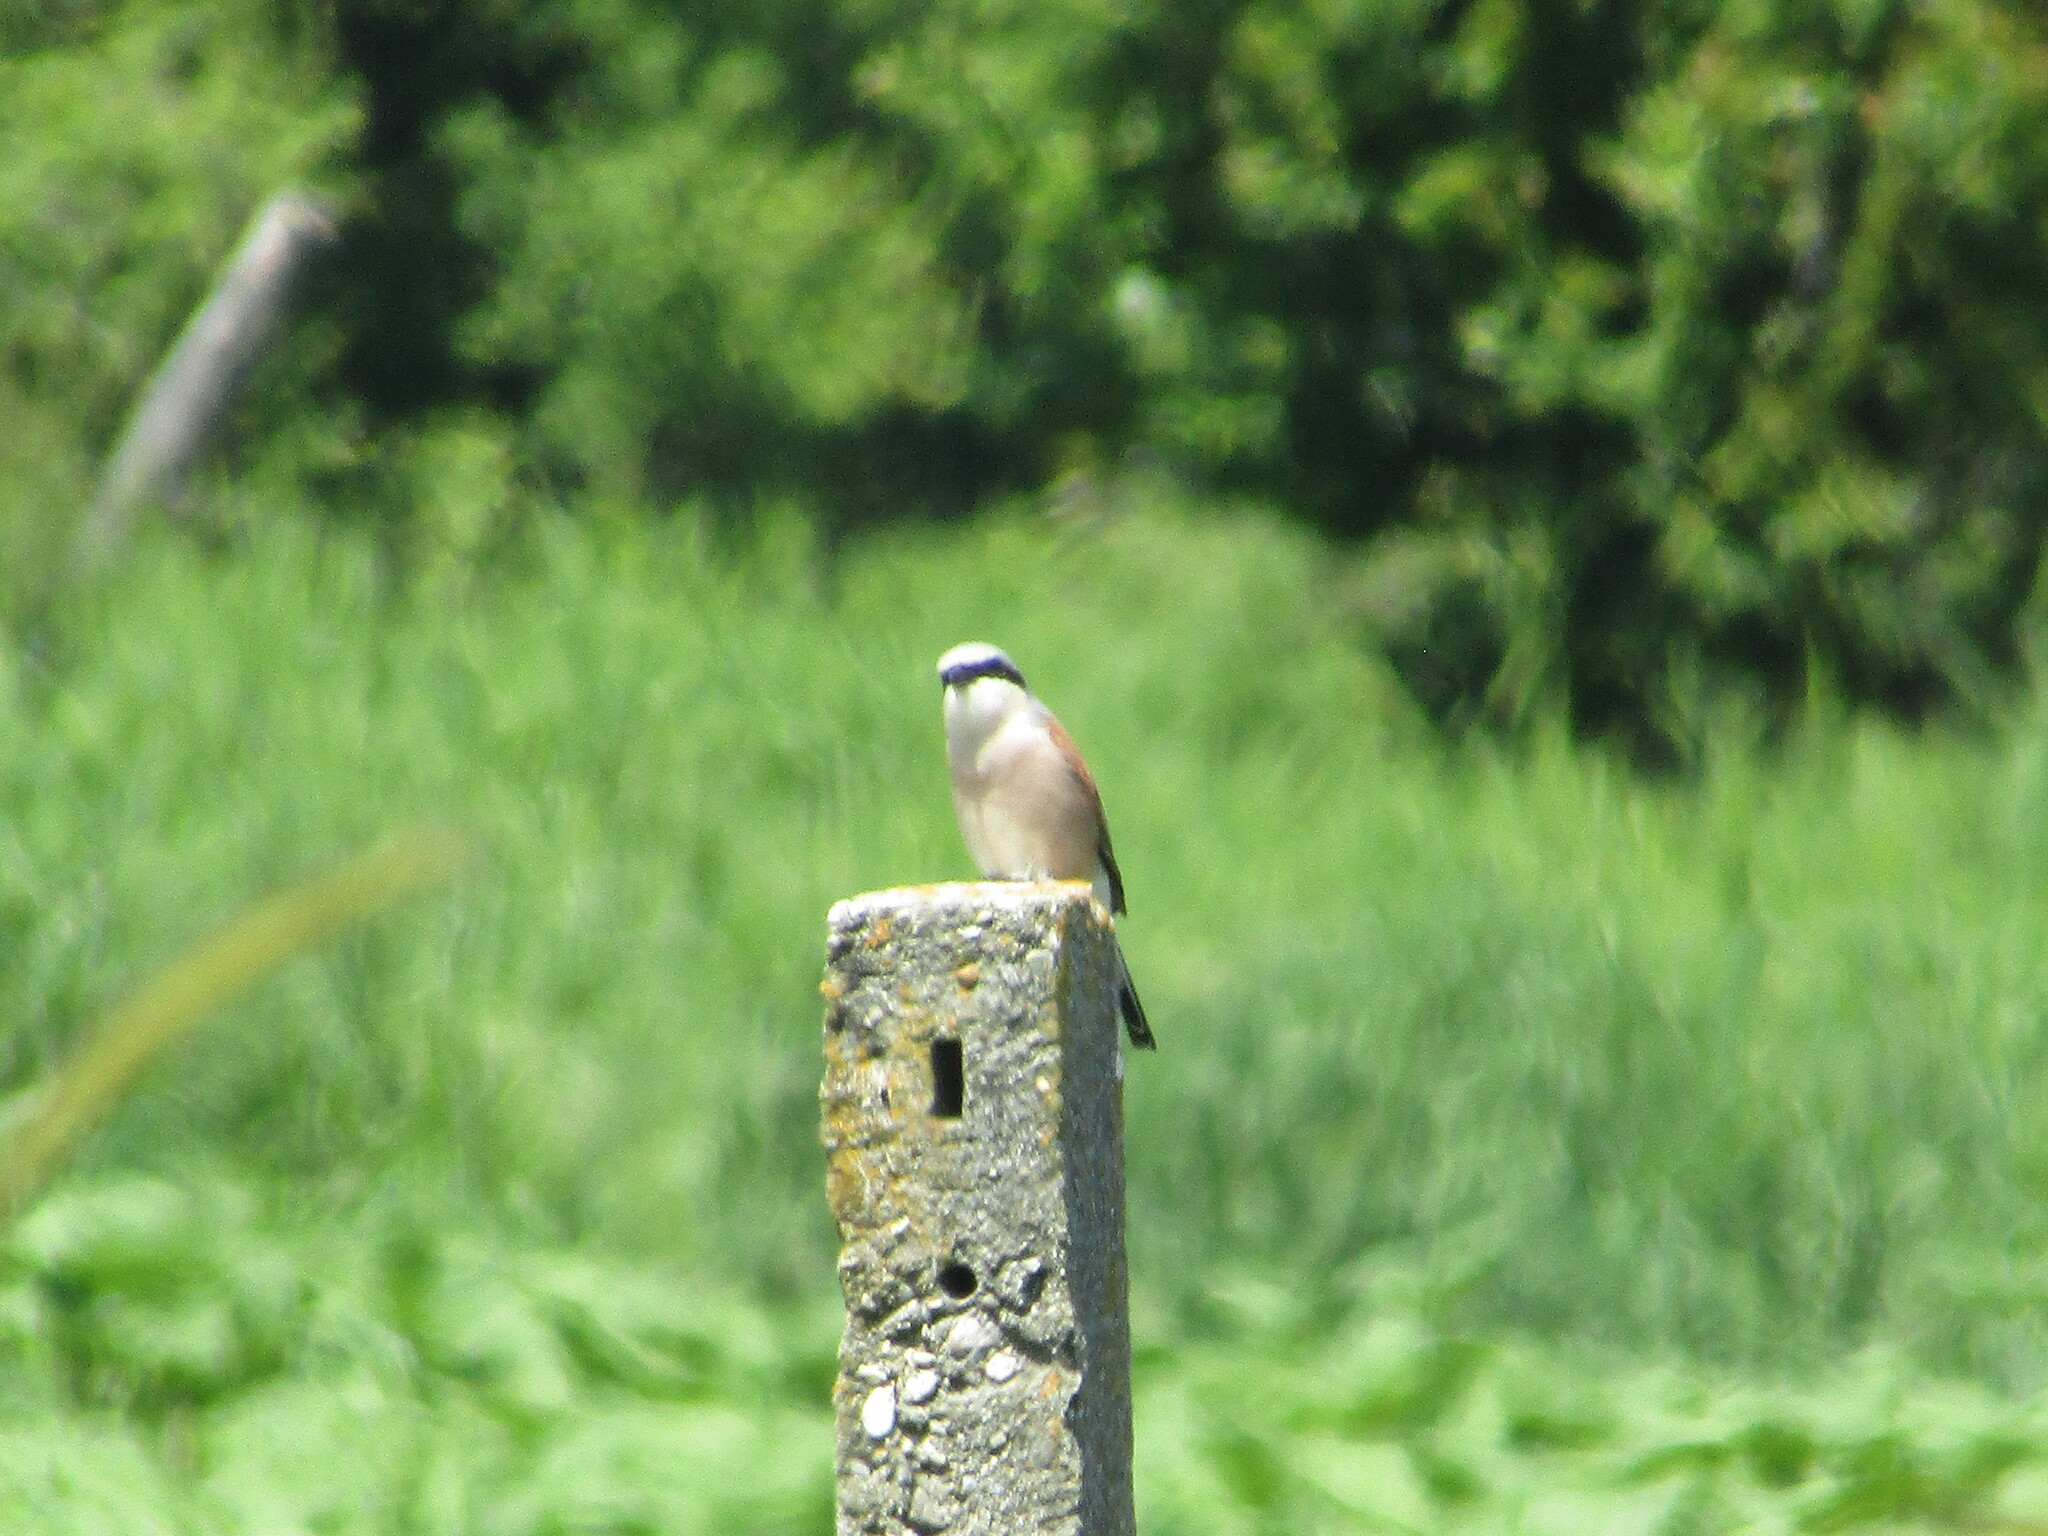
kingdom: Animalia
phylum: Chordata
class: Aves
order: Passeriformes
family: Laniidae
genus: Lanius
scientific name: Lanius collurio
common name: Red-backed shrike
